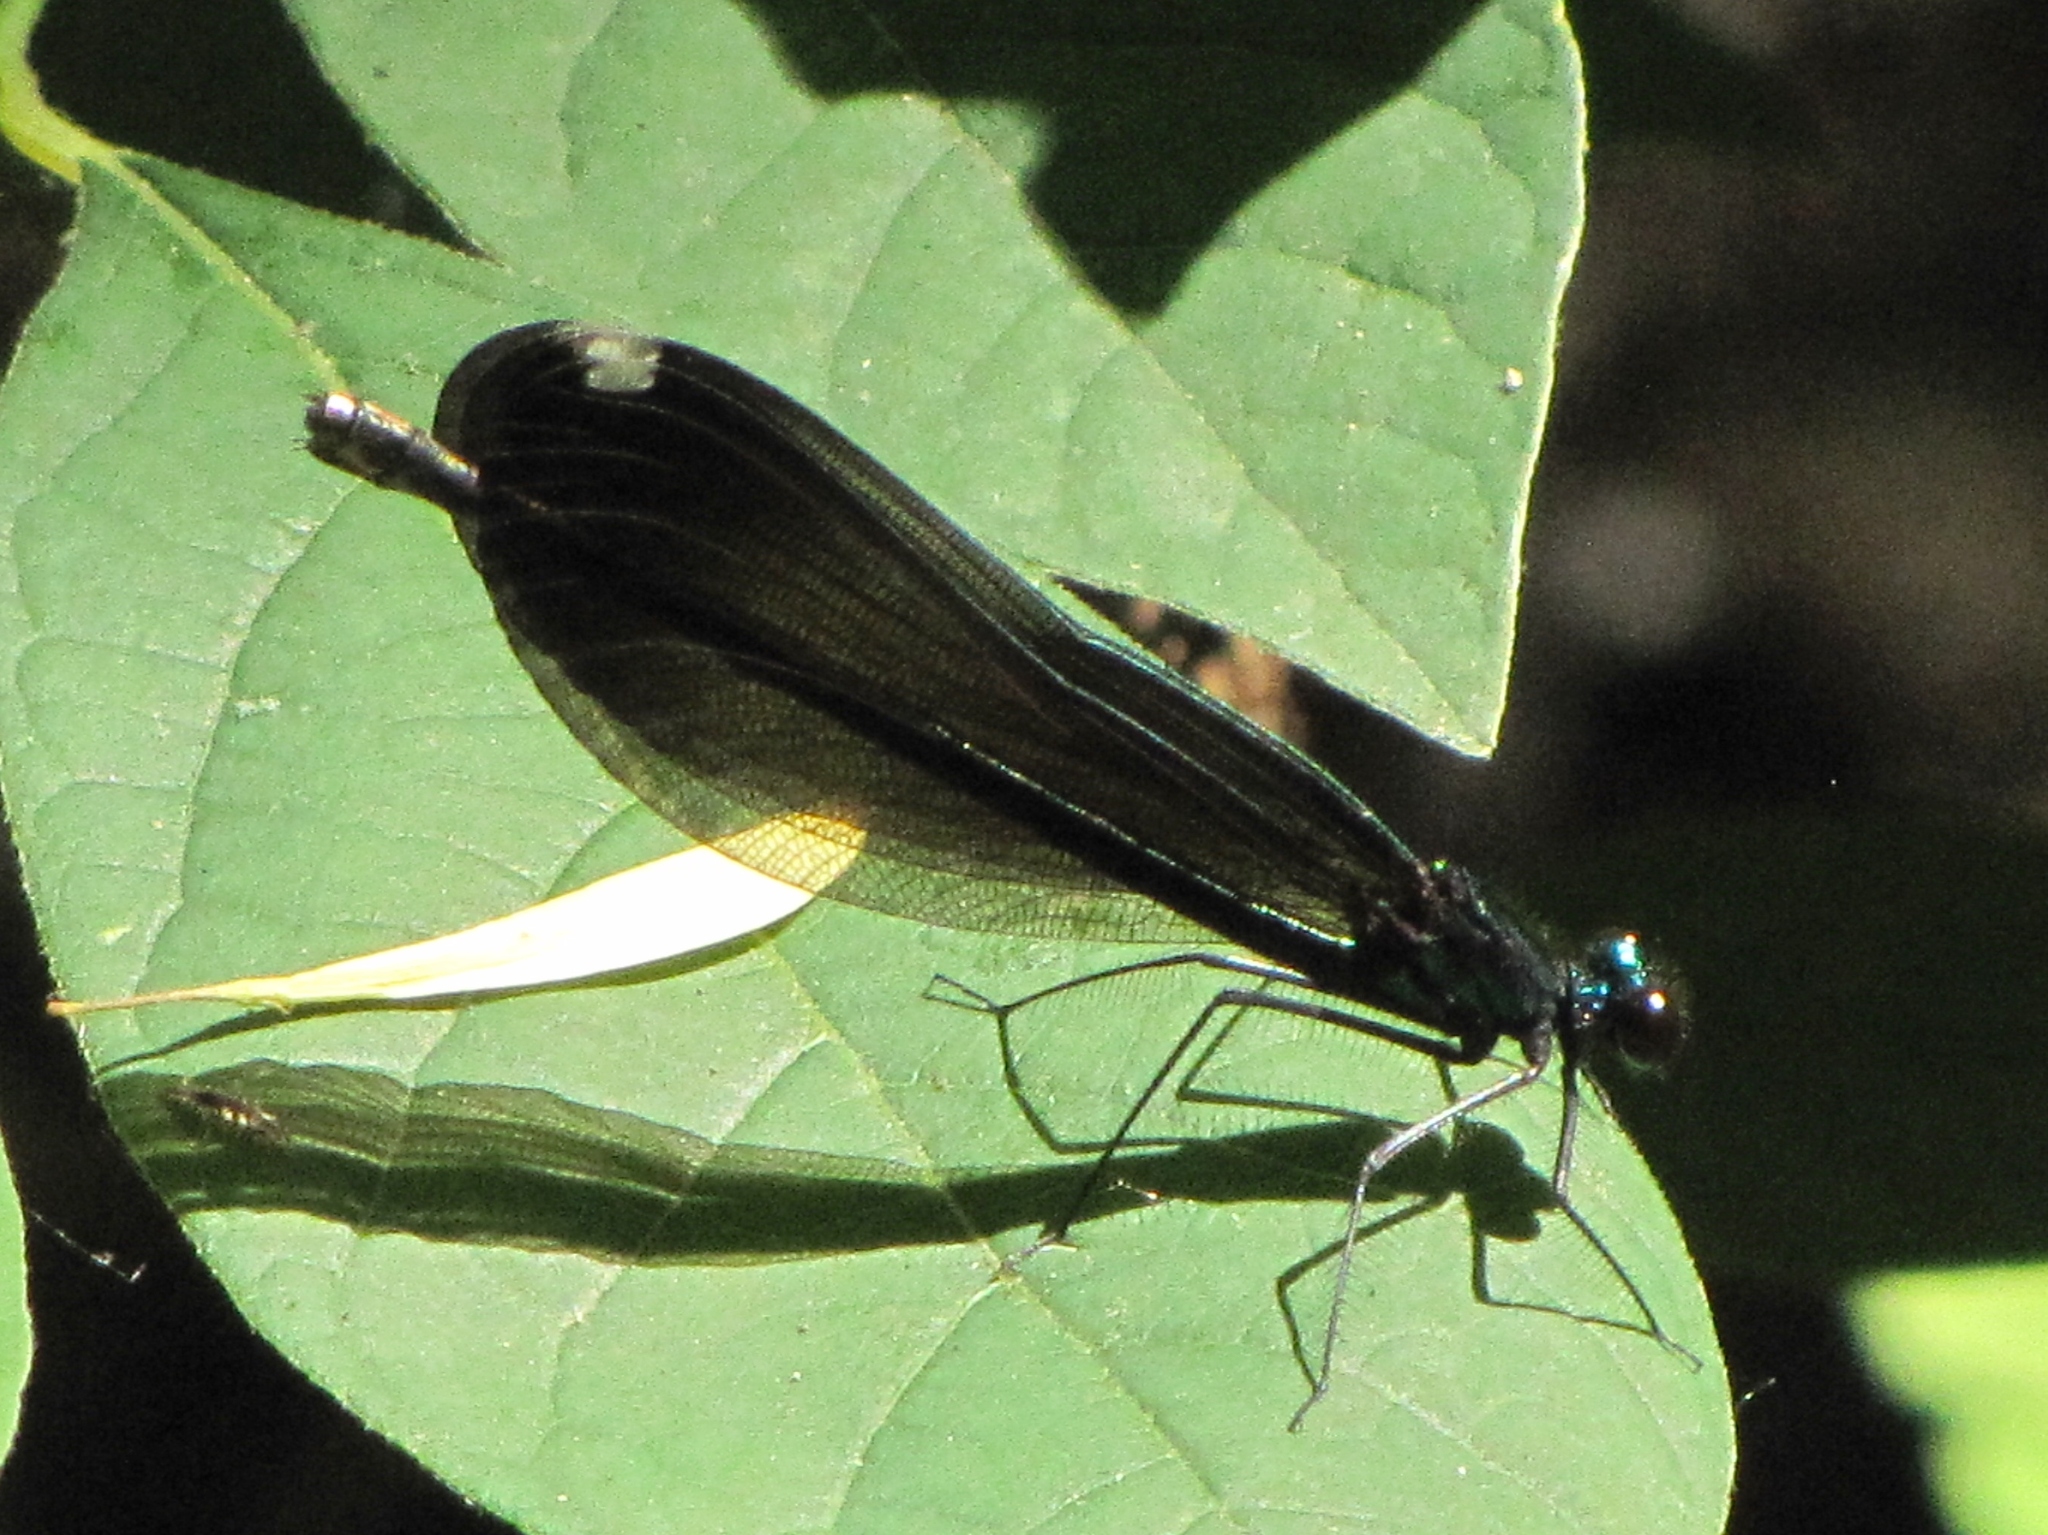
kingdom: Animalia
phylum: Arthropoda
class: Insecta
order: Odonata
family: Calopterygidae
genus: Calopteryx
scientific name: Calopteryx maculata
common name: Ebony jewelwing
